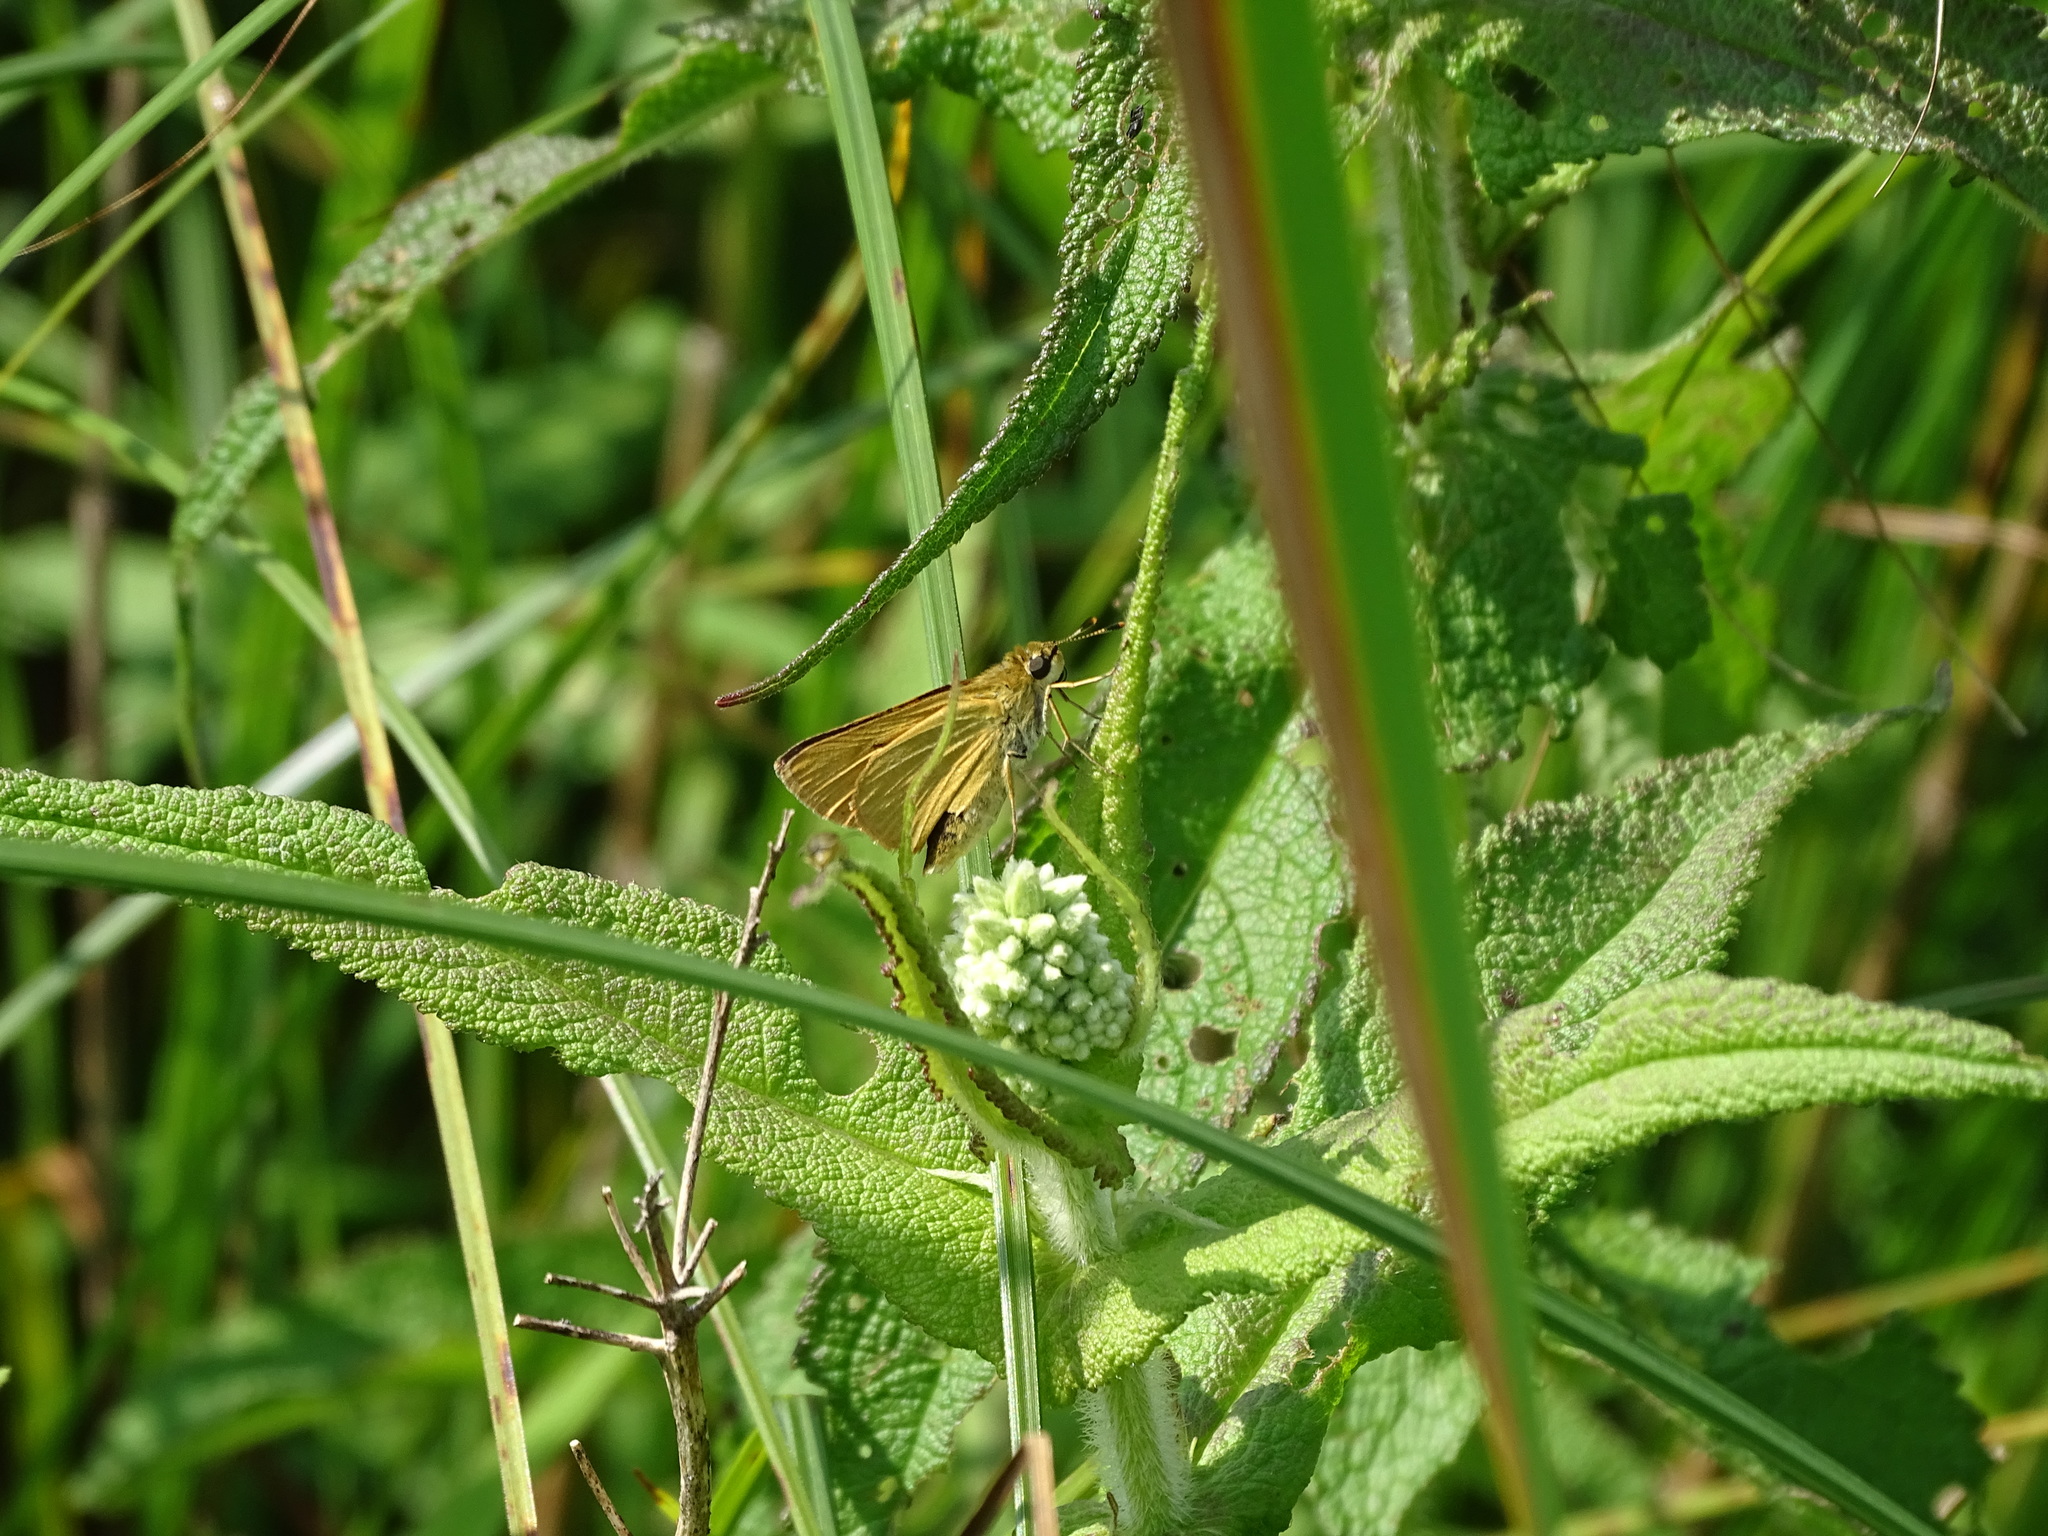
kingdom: Animalia
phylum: Arthropoda
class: Insecta
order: Lepidoptera
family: Hesperiidae
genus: Atrytone
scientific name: Atrytone delaware
